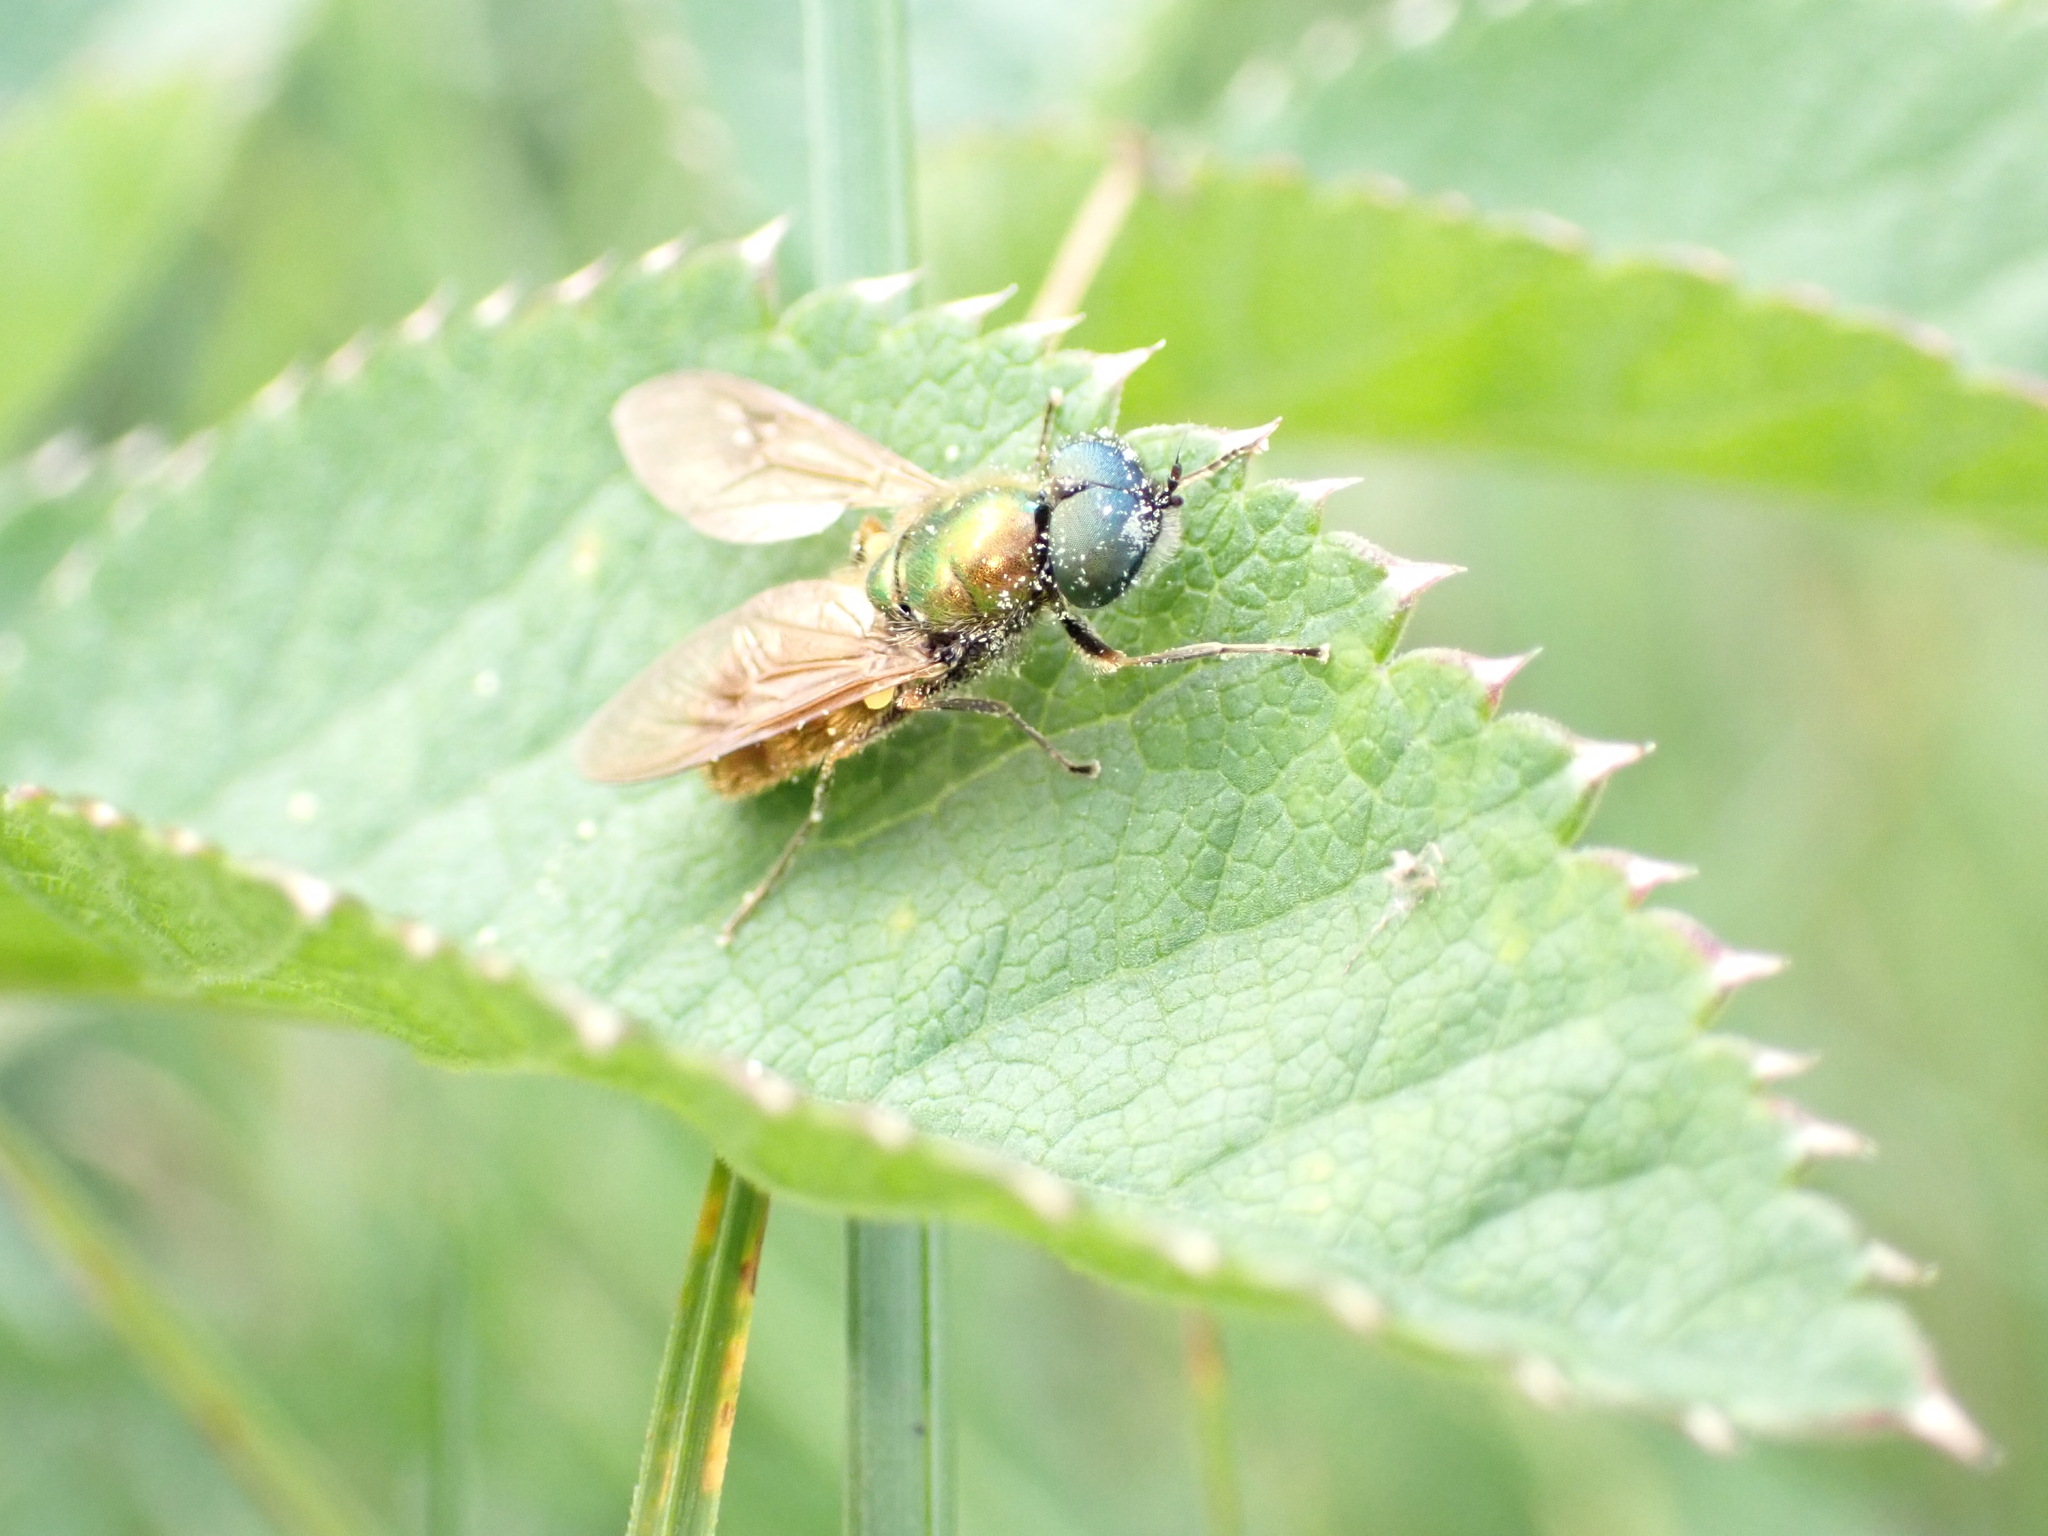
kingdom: Animalia
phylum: Arthropoda
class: Insecta
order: Diptera
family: Stratiomyidae
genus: Chloromyia
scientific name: Chloromyia formosa
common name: Soldier fly
